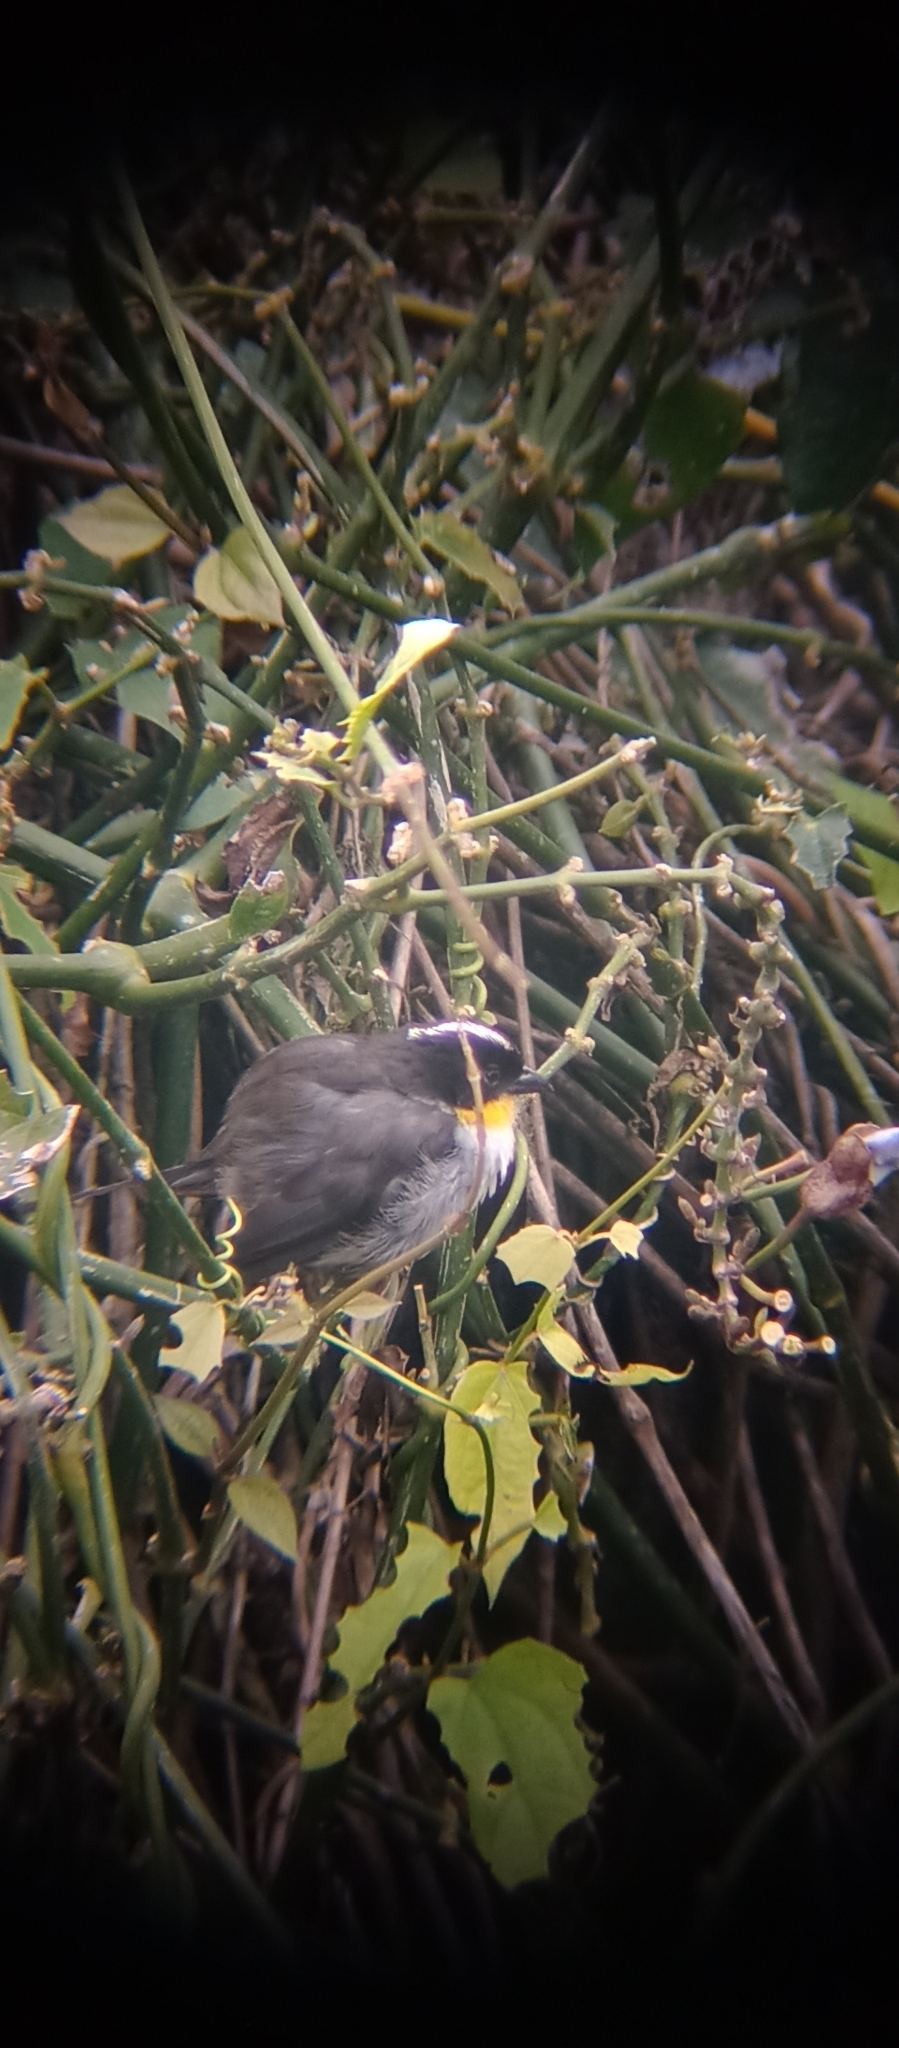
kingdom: Animalia
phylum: Chordata
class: Aves
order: Passeriformes
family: Passerellidae
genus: Atlapetes
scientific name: Atlapetes albinucha
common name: White-naped brush-finch
